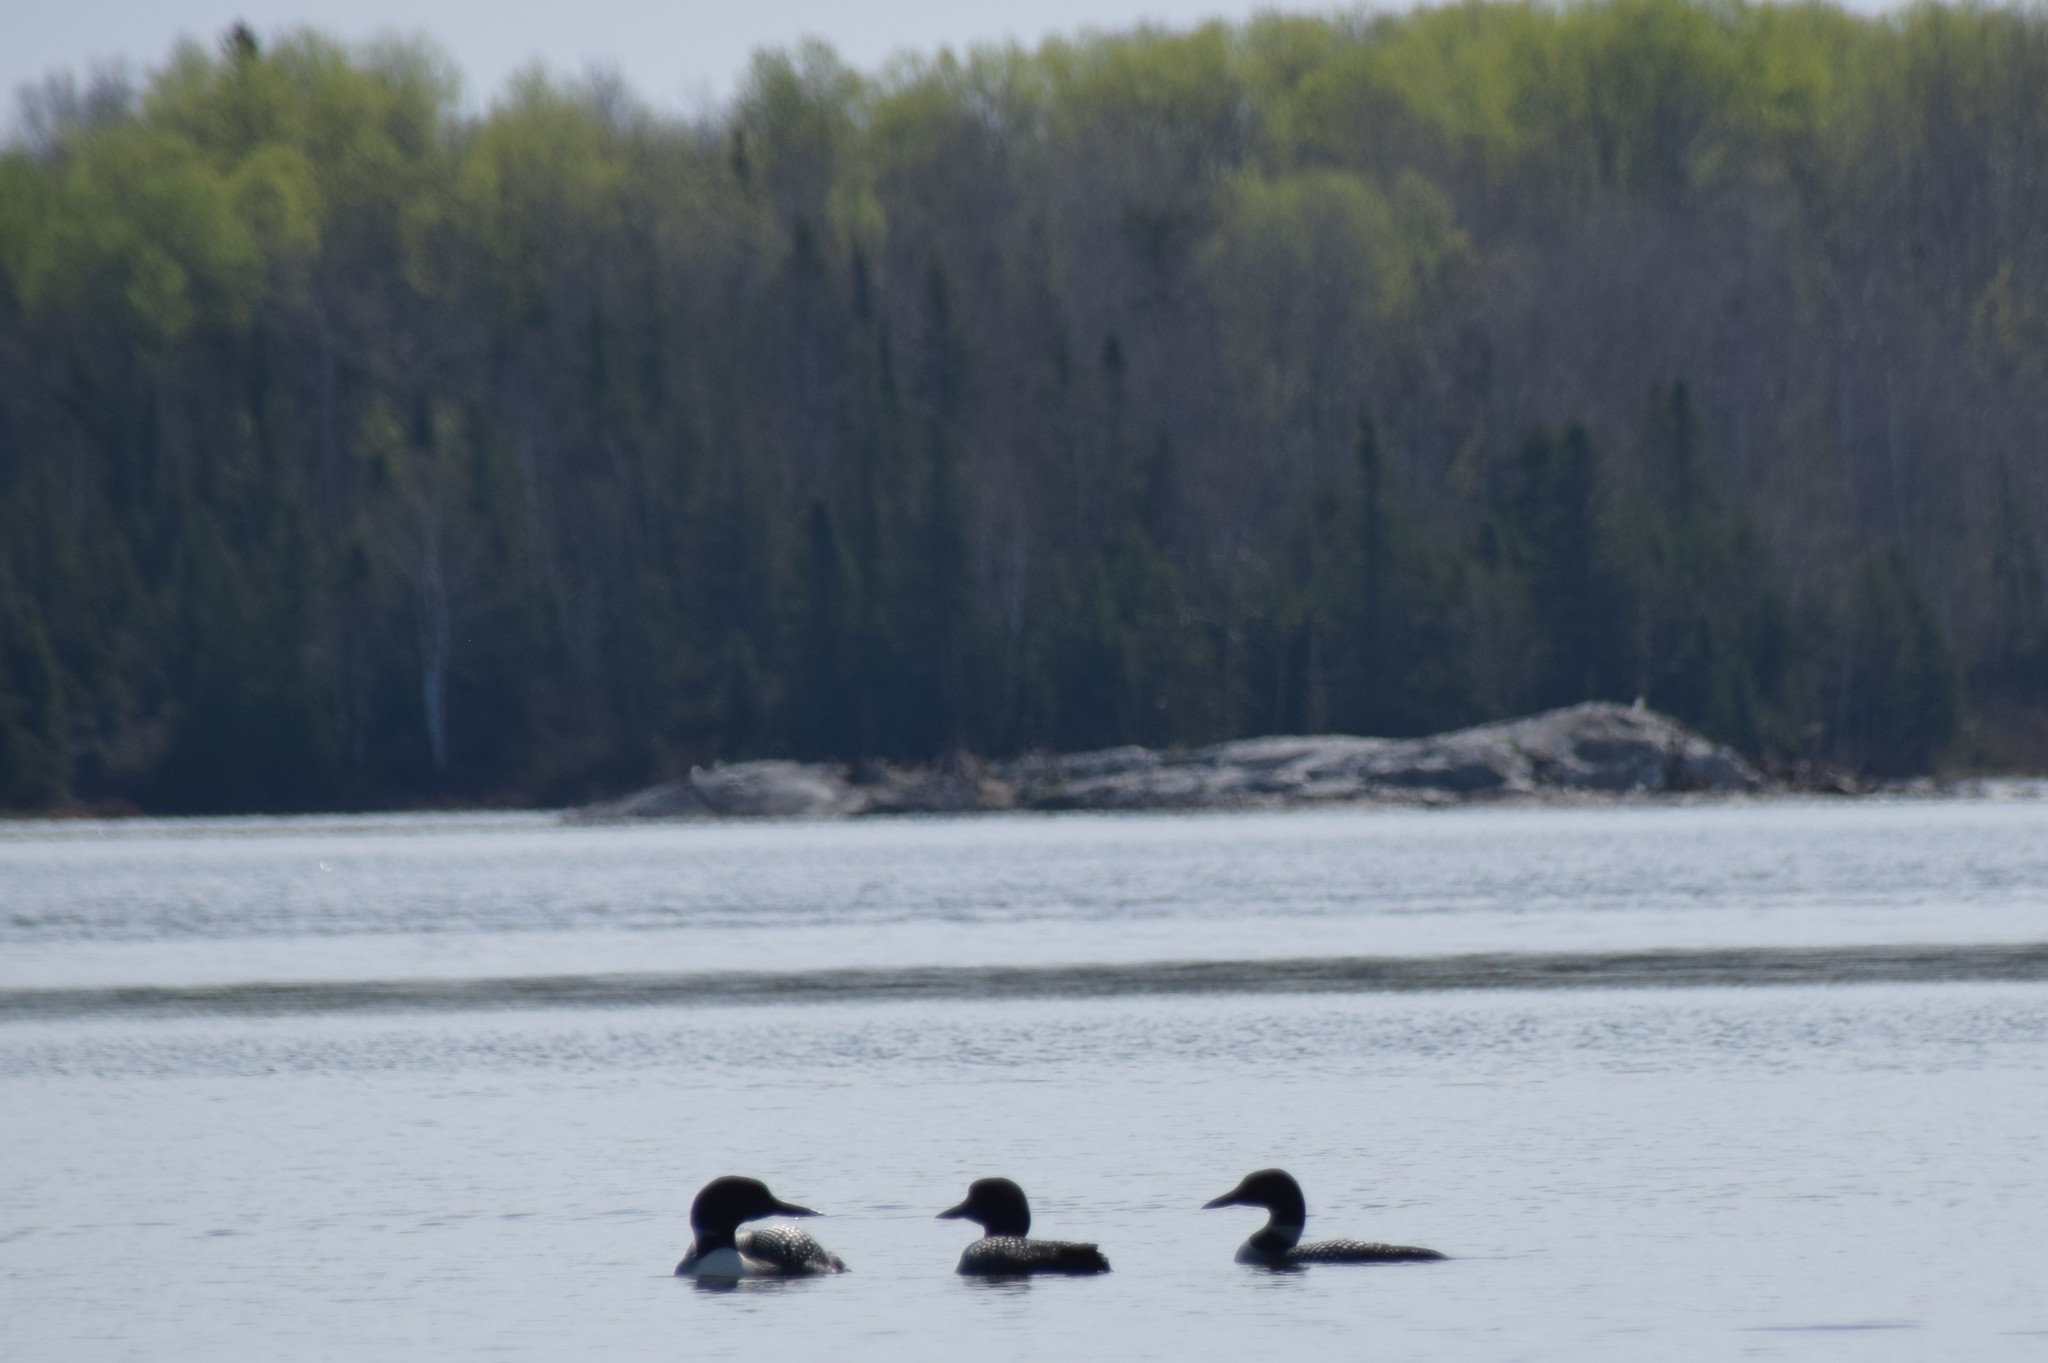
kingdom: Animalia
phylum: Chordata
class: Aves
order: Gaviiformes
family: Gaviidae
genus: Gavia
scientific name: Gavia immer
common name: Common loon
